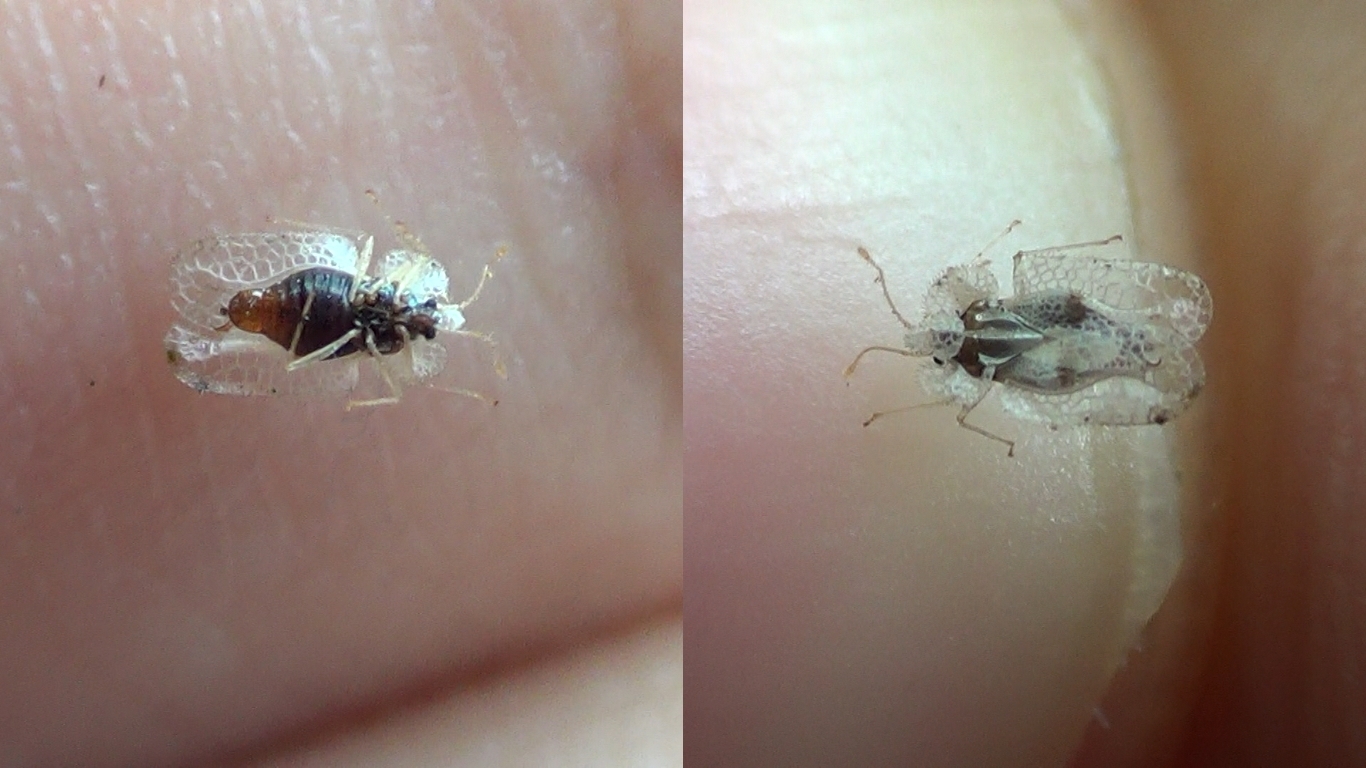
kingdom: Animalia
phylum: Arthropoda
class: Insecta
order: Hemiptera
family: Tingidae
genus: Corythucha
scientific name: Corythucha ciliata
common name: Sycamore lace bug
